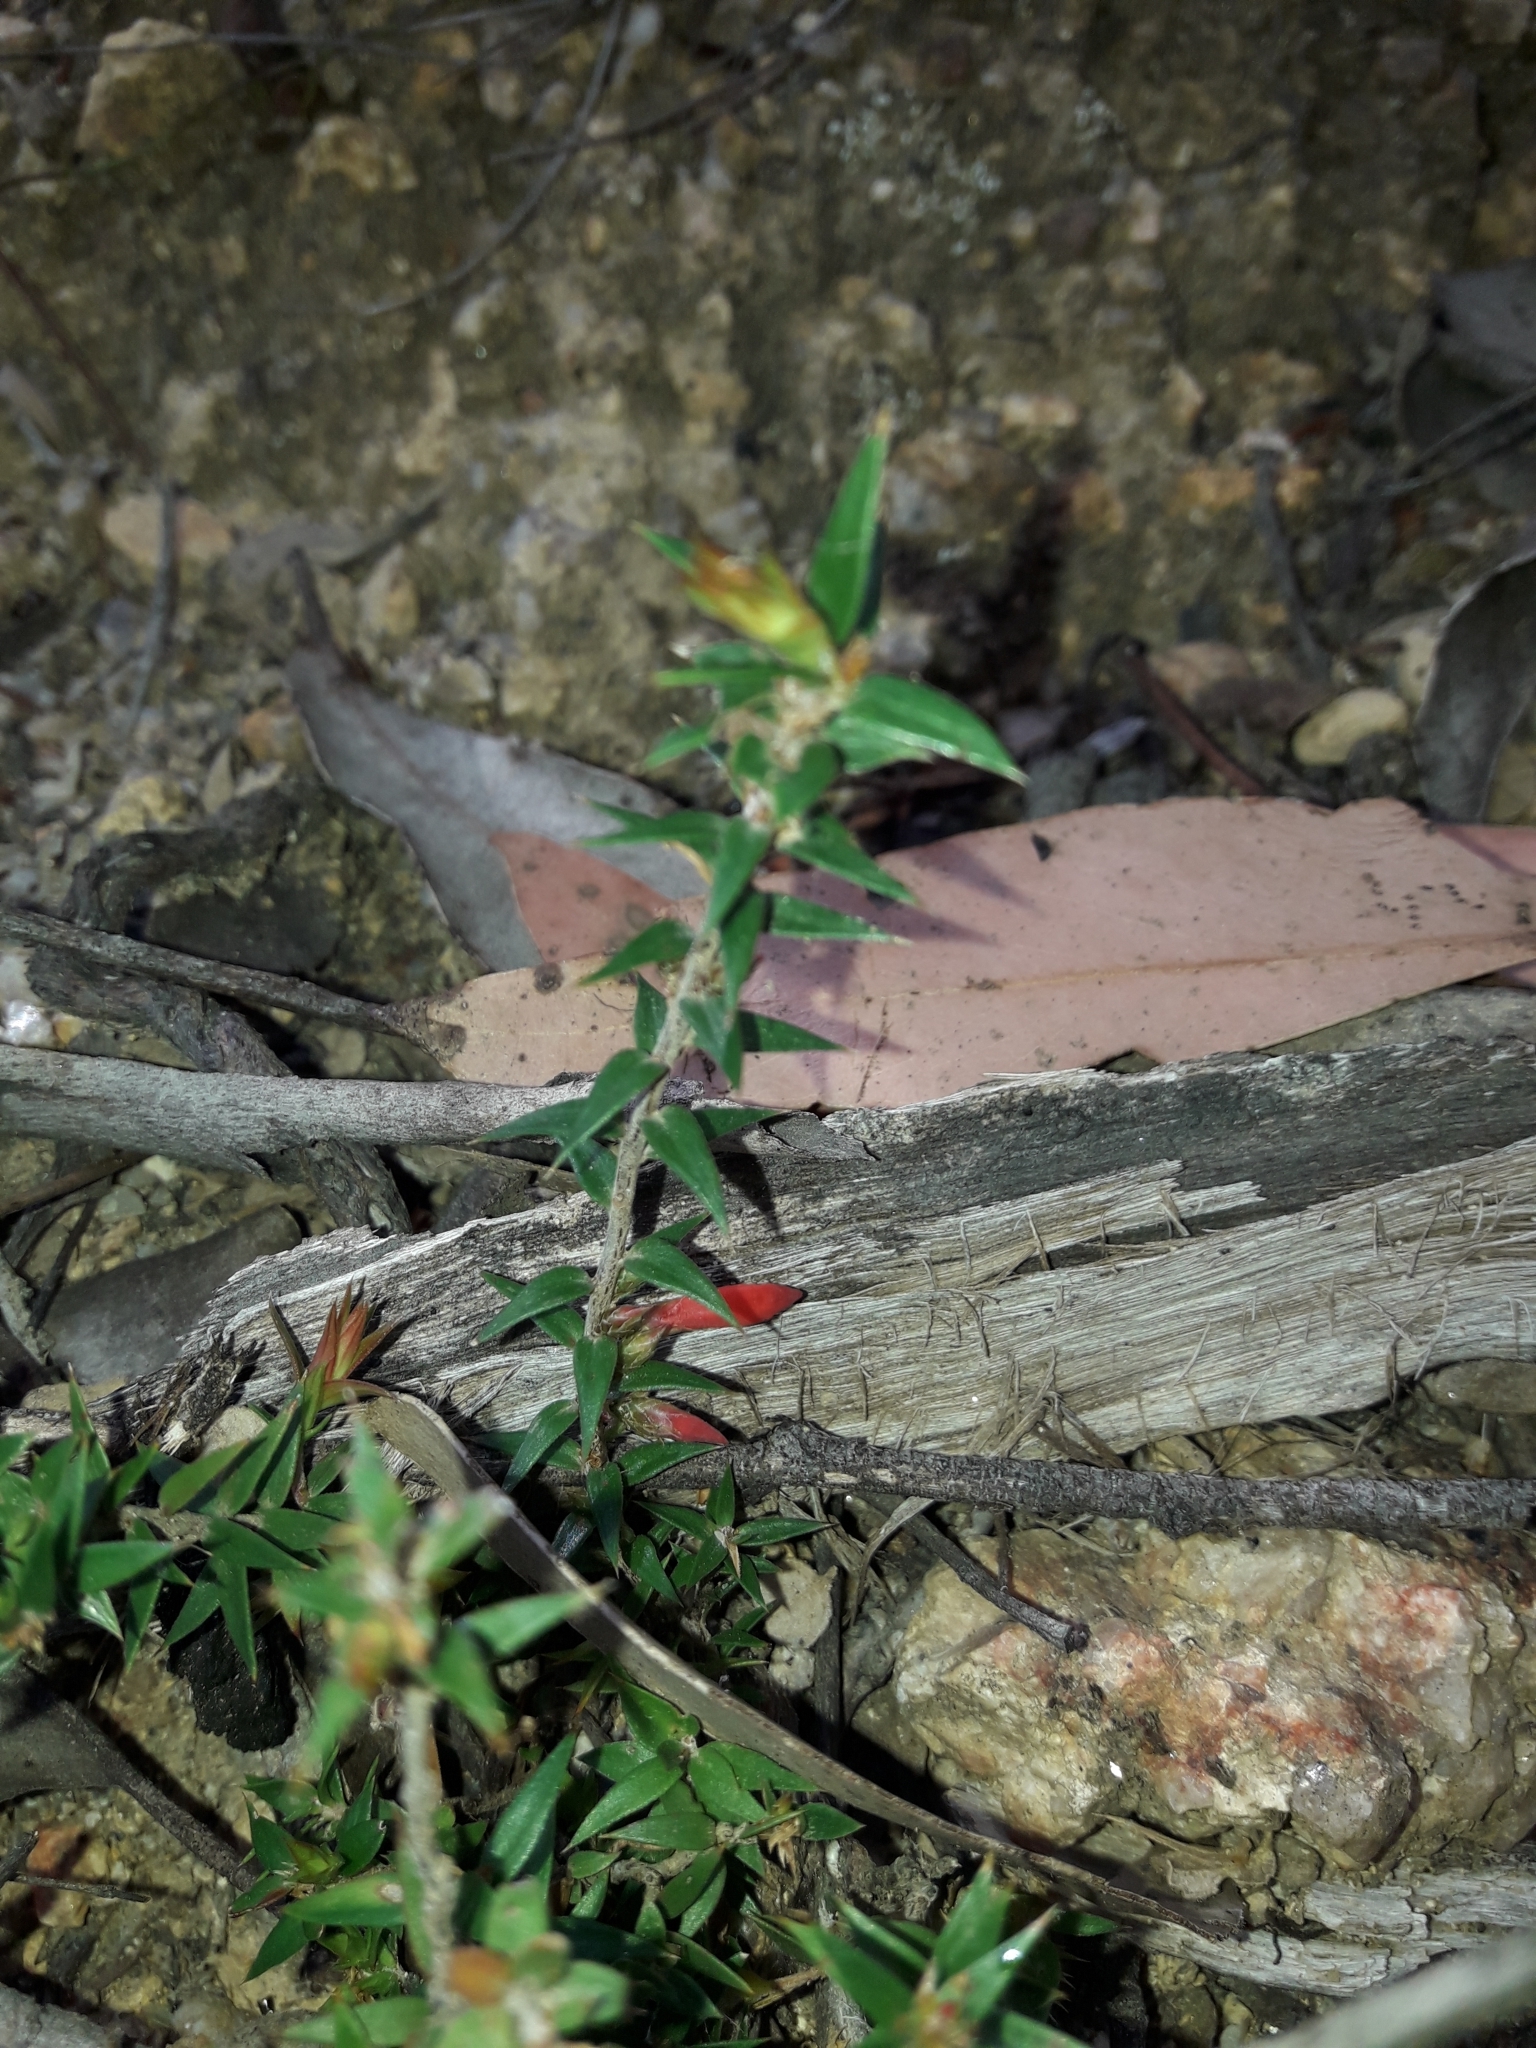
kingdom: Plantae
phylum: Tracheophyta
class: Magnoliopsida
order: Ericales
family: Ericaceae
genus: Epacris
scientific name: Epacris impressa
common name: Common-heath
